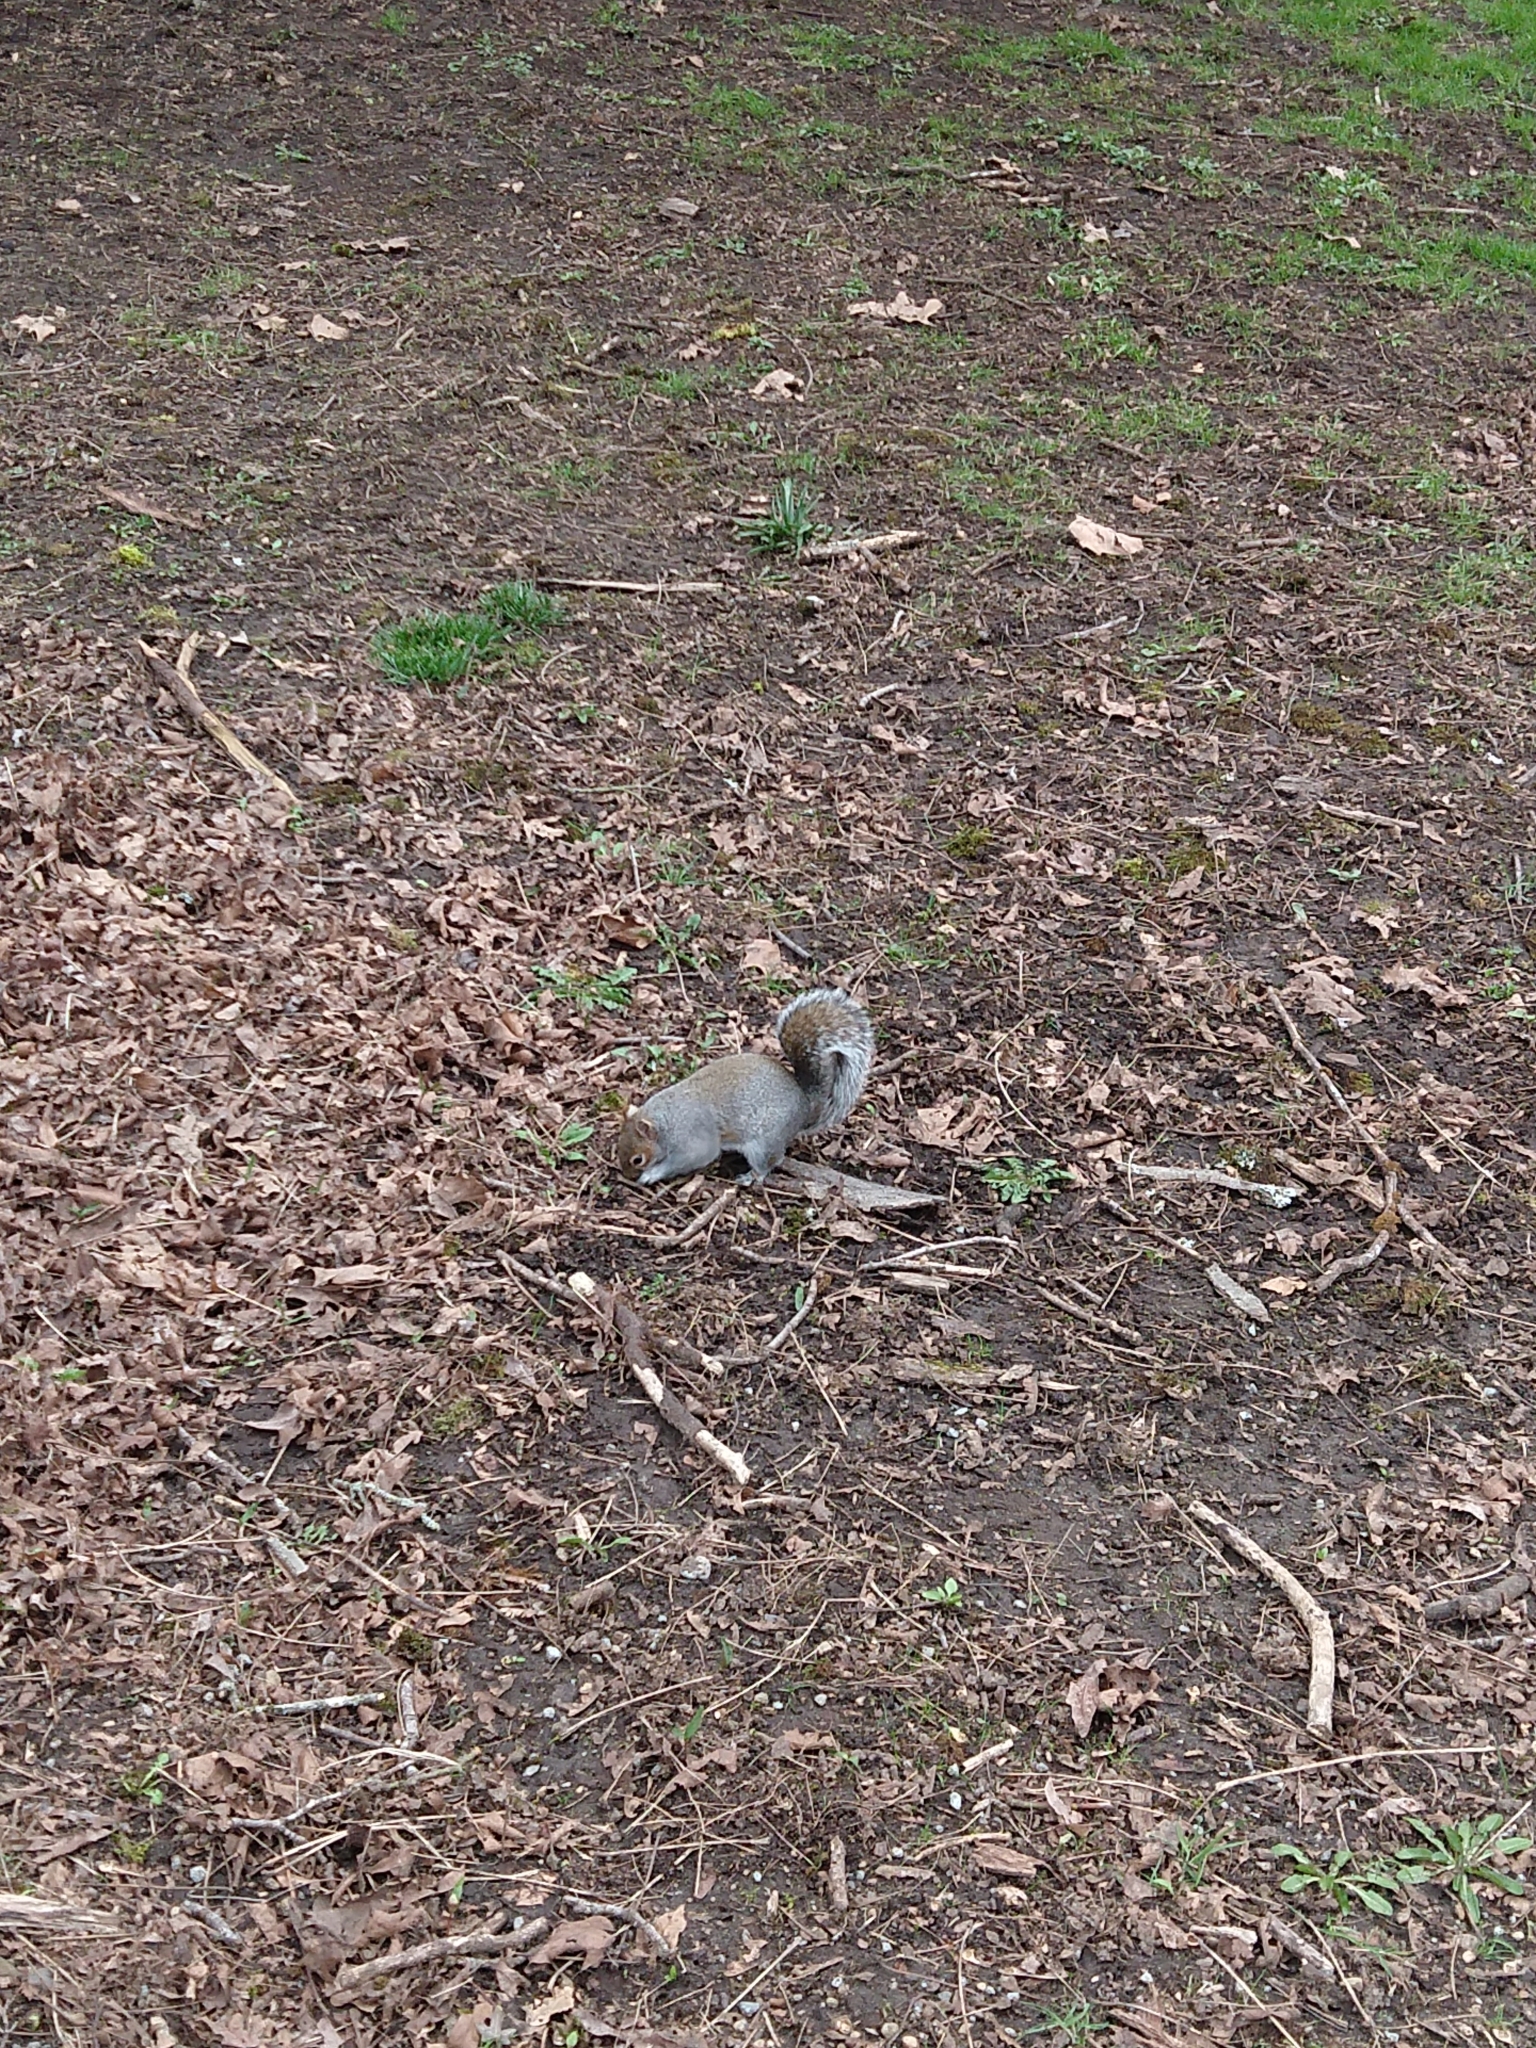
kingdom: Animalia
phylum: Chordata
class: Mammalia
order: Rodentia
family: Sciuridae
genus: Sciurus
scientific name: Sciurus carolinensis
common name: Eastern gray squirrel
